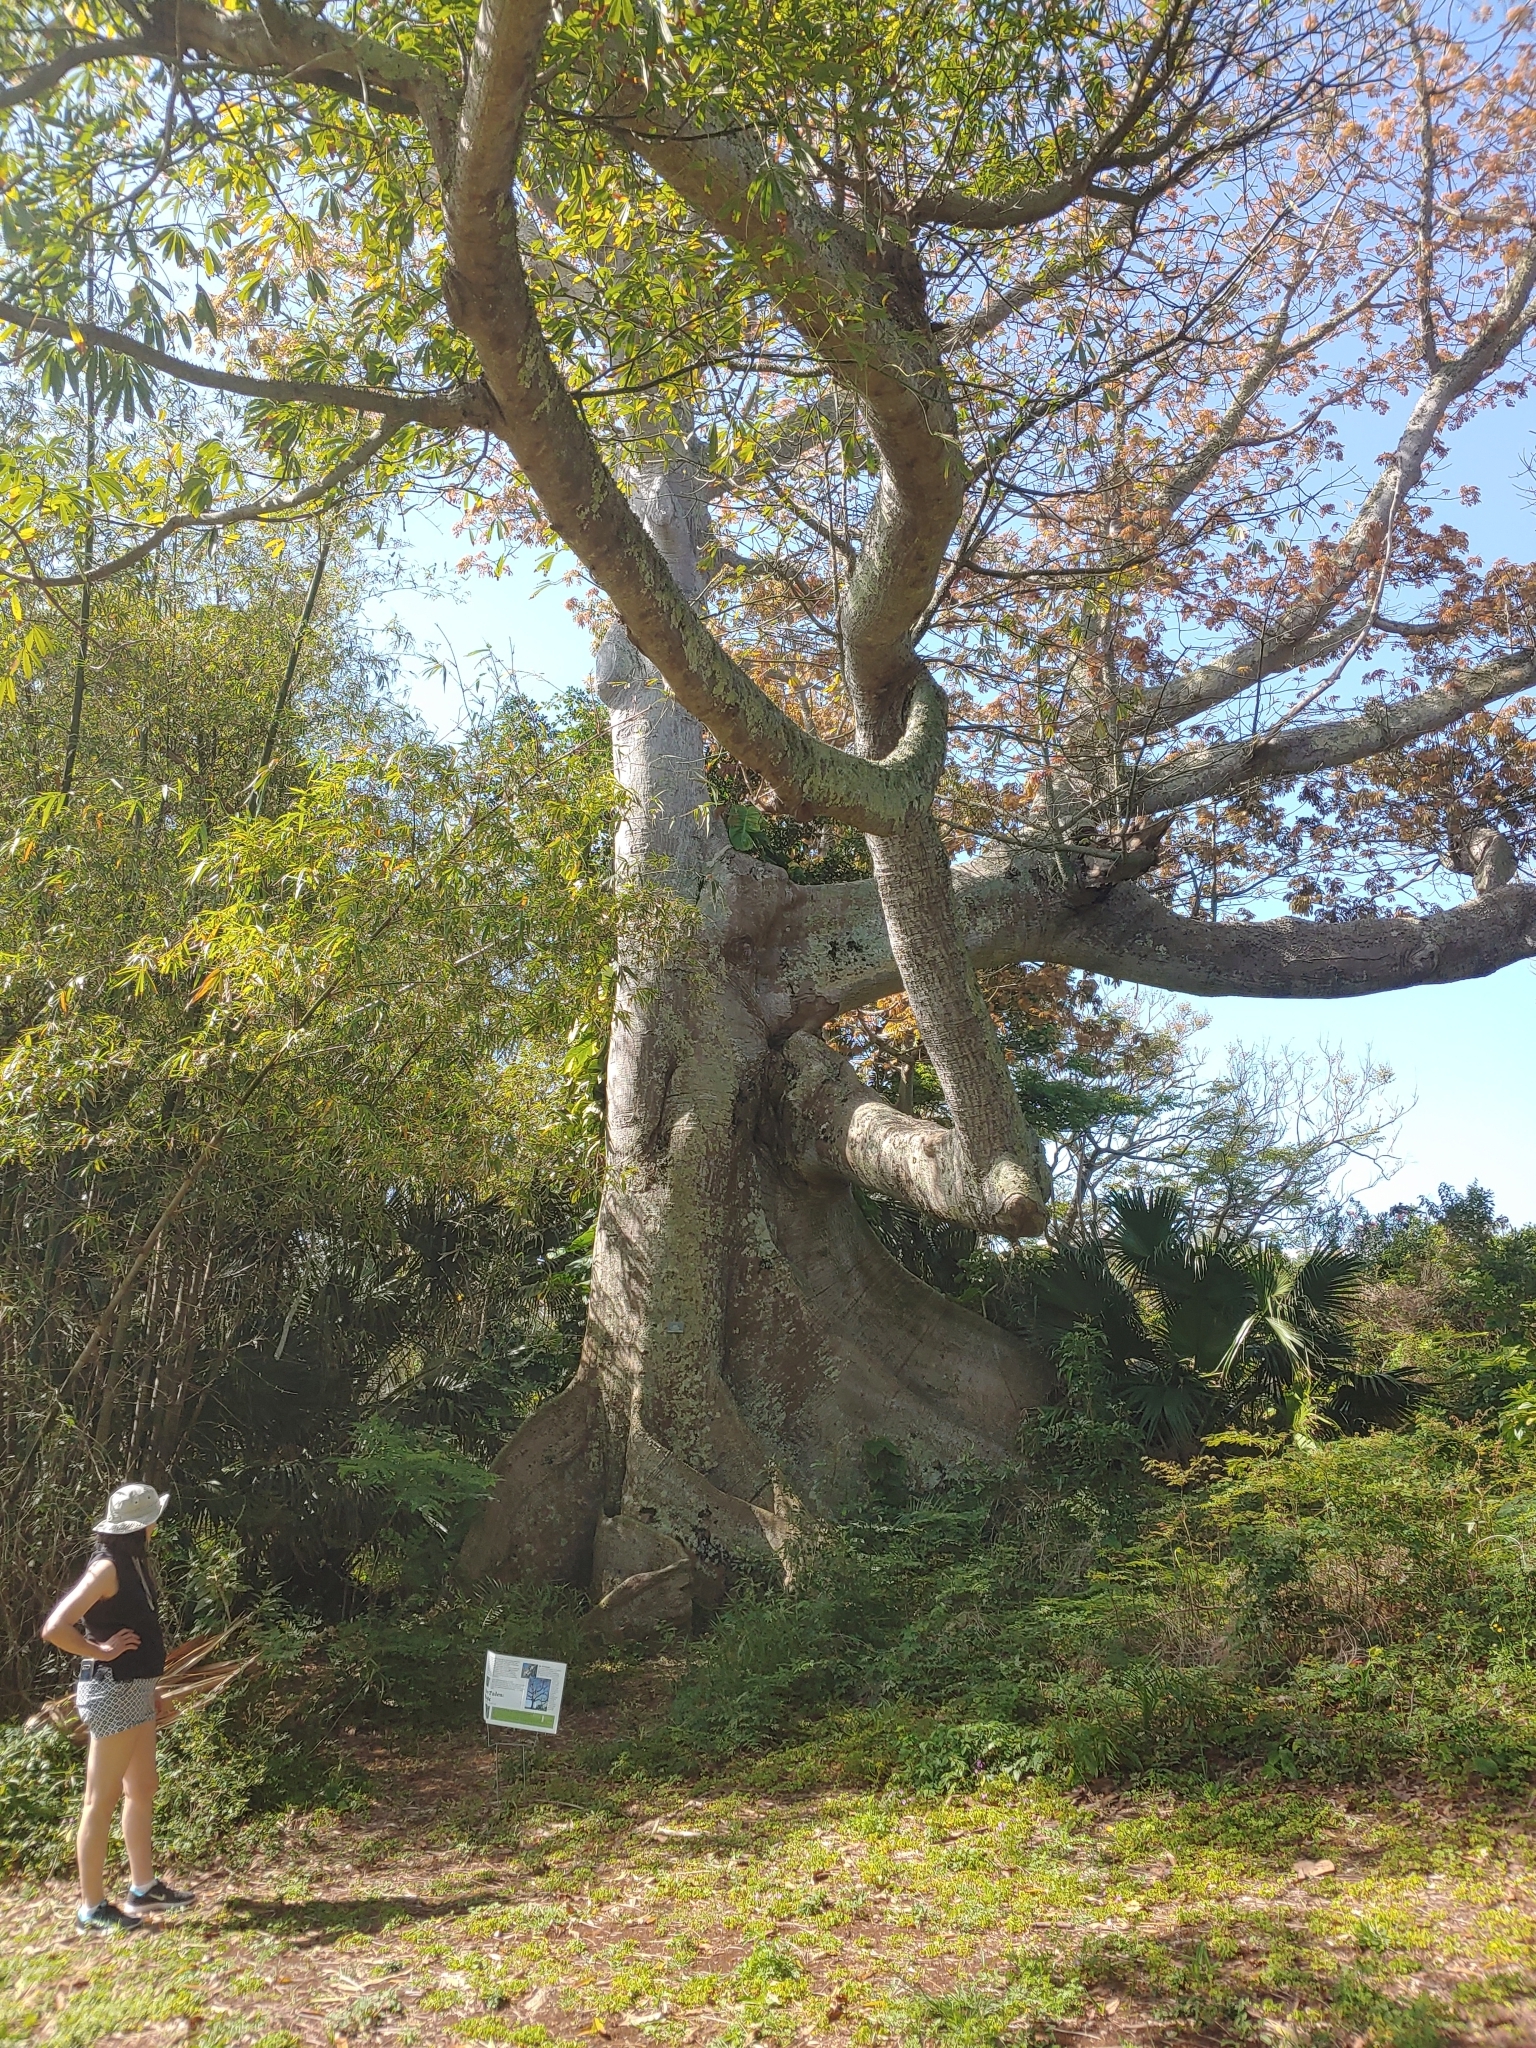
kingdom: Plantae
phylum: Tracheophyta
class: Magnoliopsida
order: Malvales
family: Malvaceae
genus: Ceiba
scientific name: Ceiba pentandra
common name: Kapok
